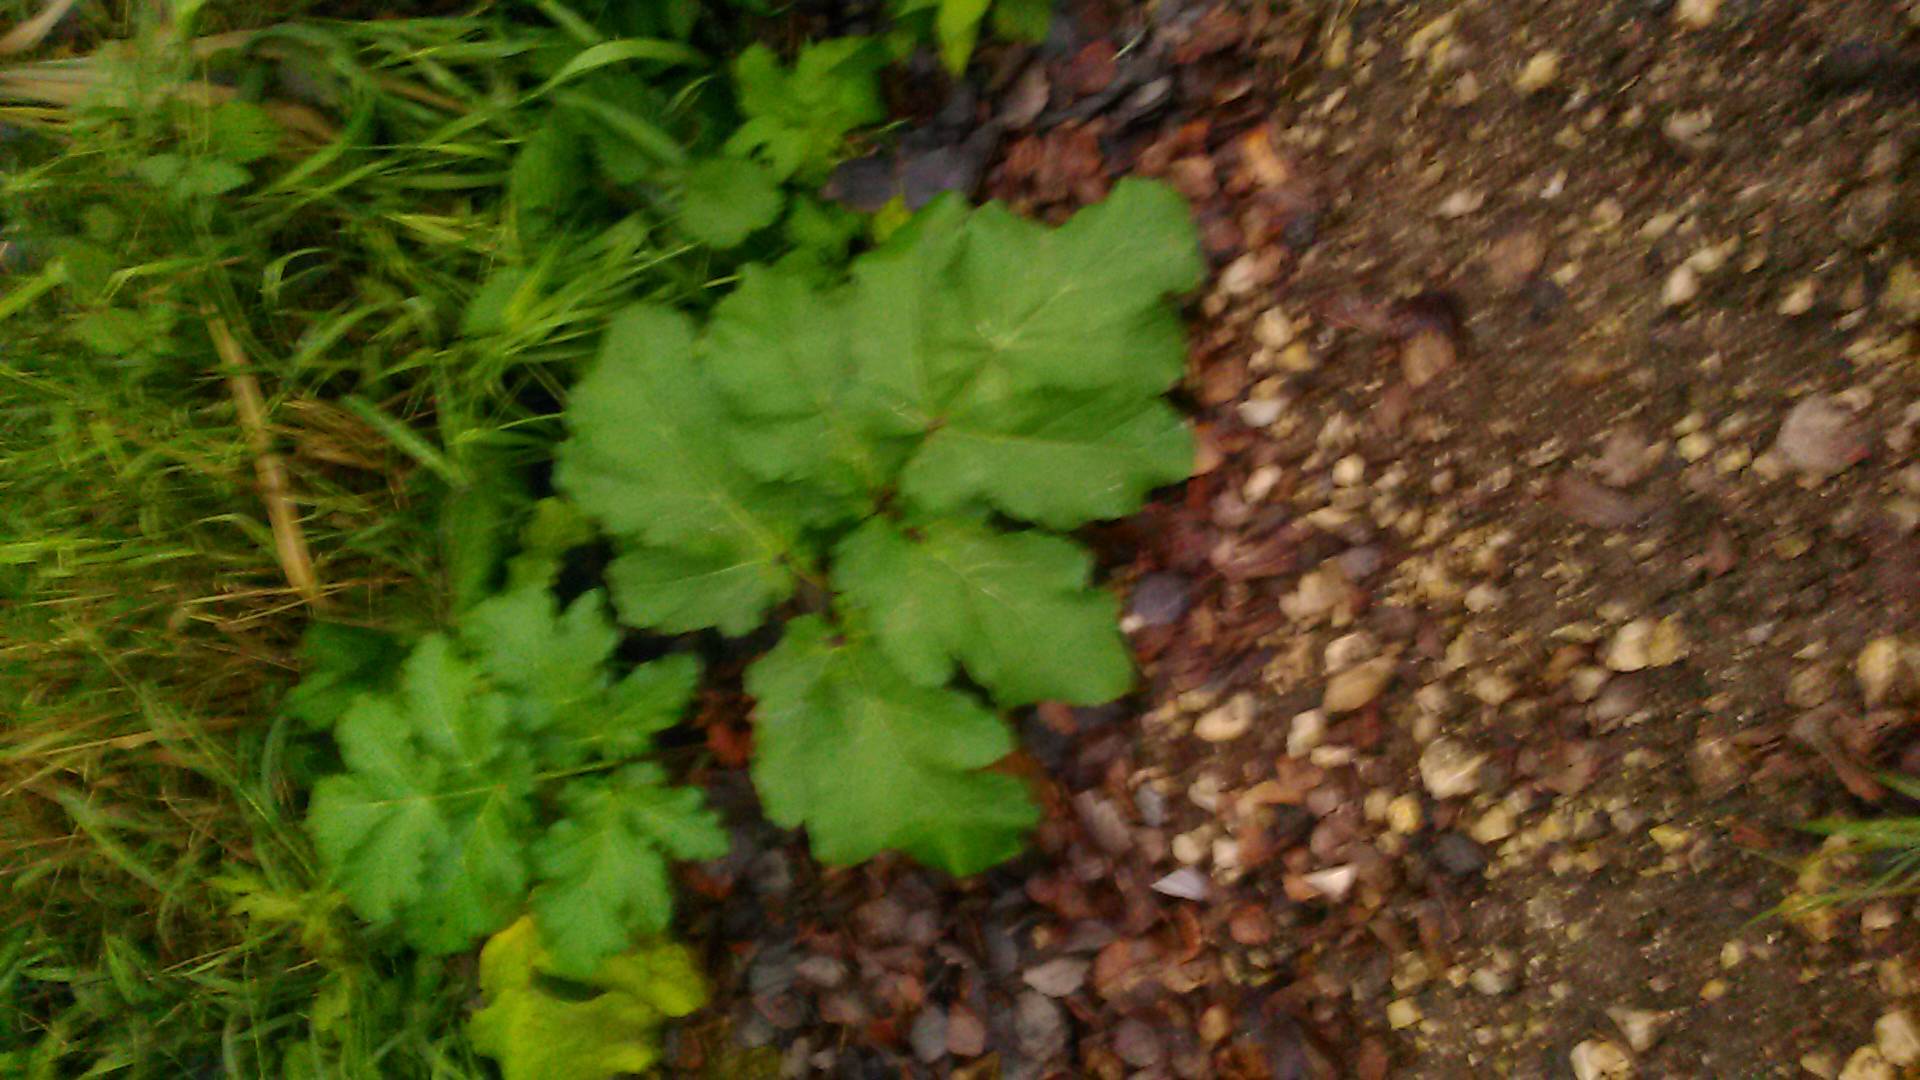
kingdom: Plantae
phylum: Tracheophyta
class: Magnoliopsida
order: Apiales
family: Apiaceae
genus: Heracleum
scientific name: Heracleum sosnowskyi
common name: Sosnowsky's hogweed
